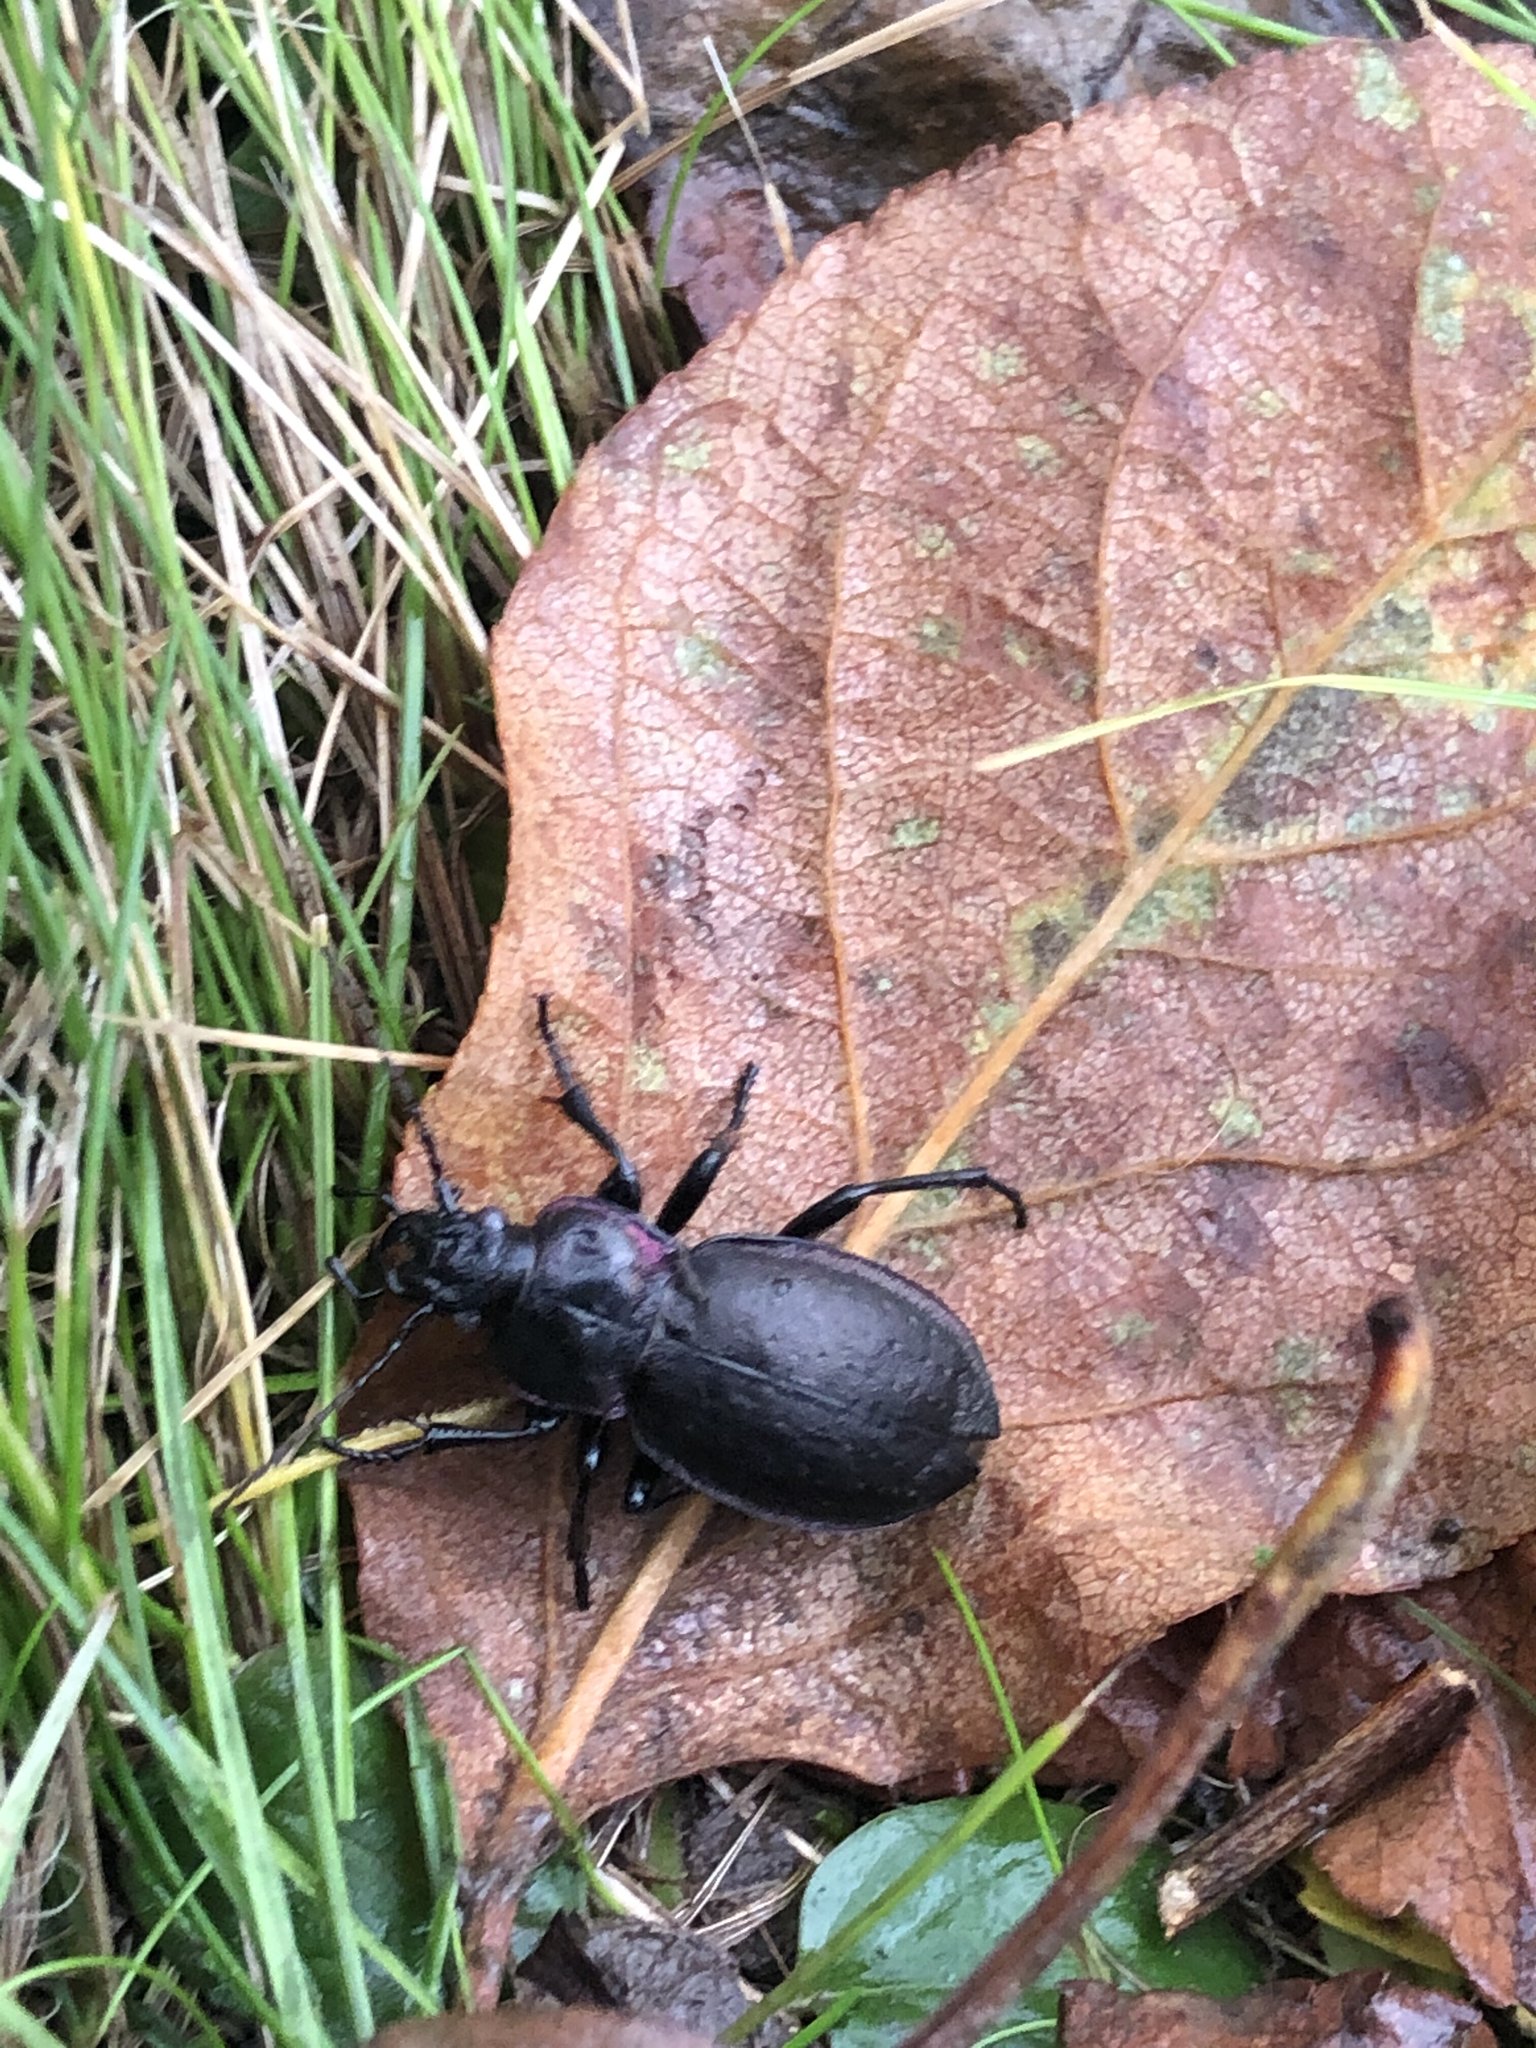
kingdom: Animalia
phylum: Arthropoda
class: Insecta
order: Coleoptera
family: Carabidae
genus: Carabus
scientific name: Carabus nemoralis
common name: European ground beetle
